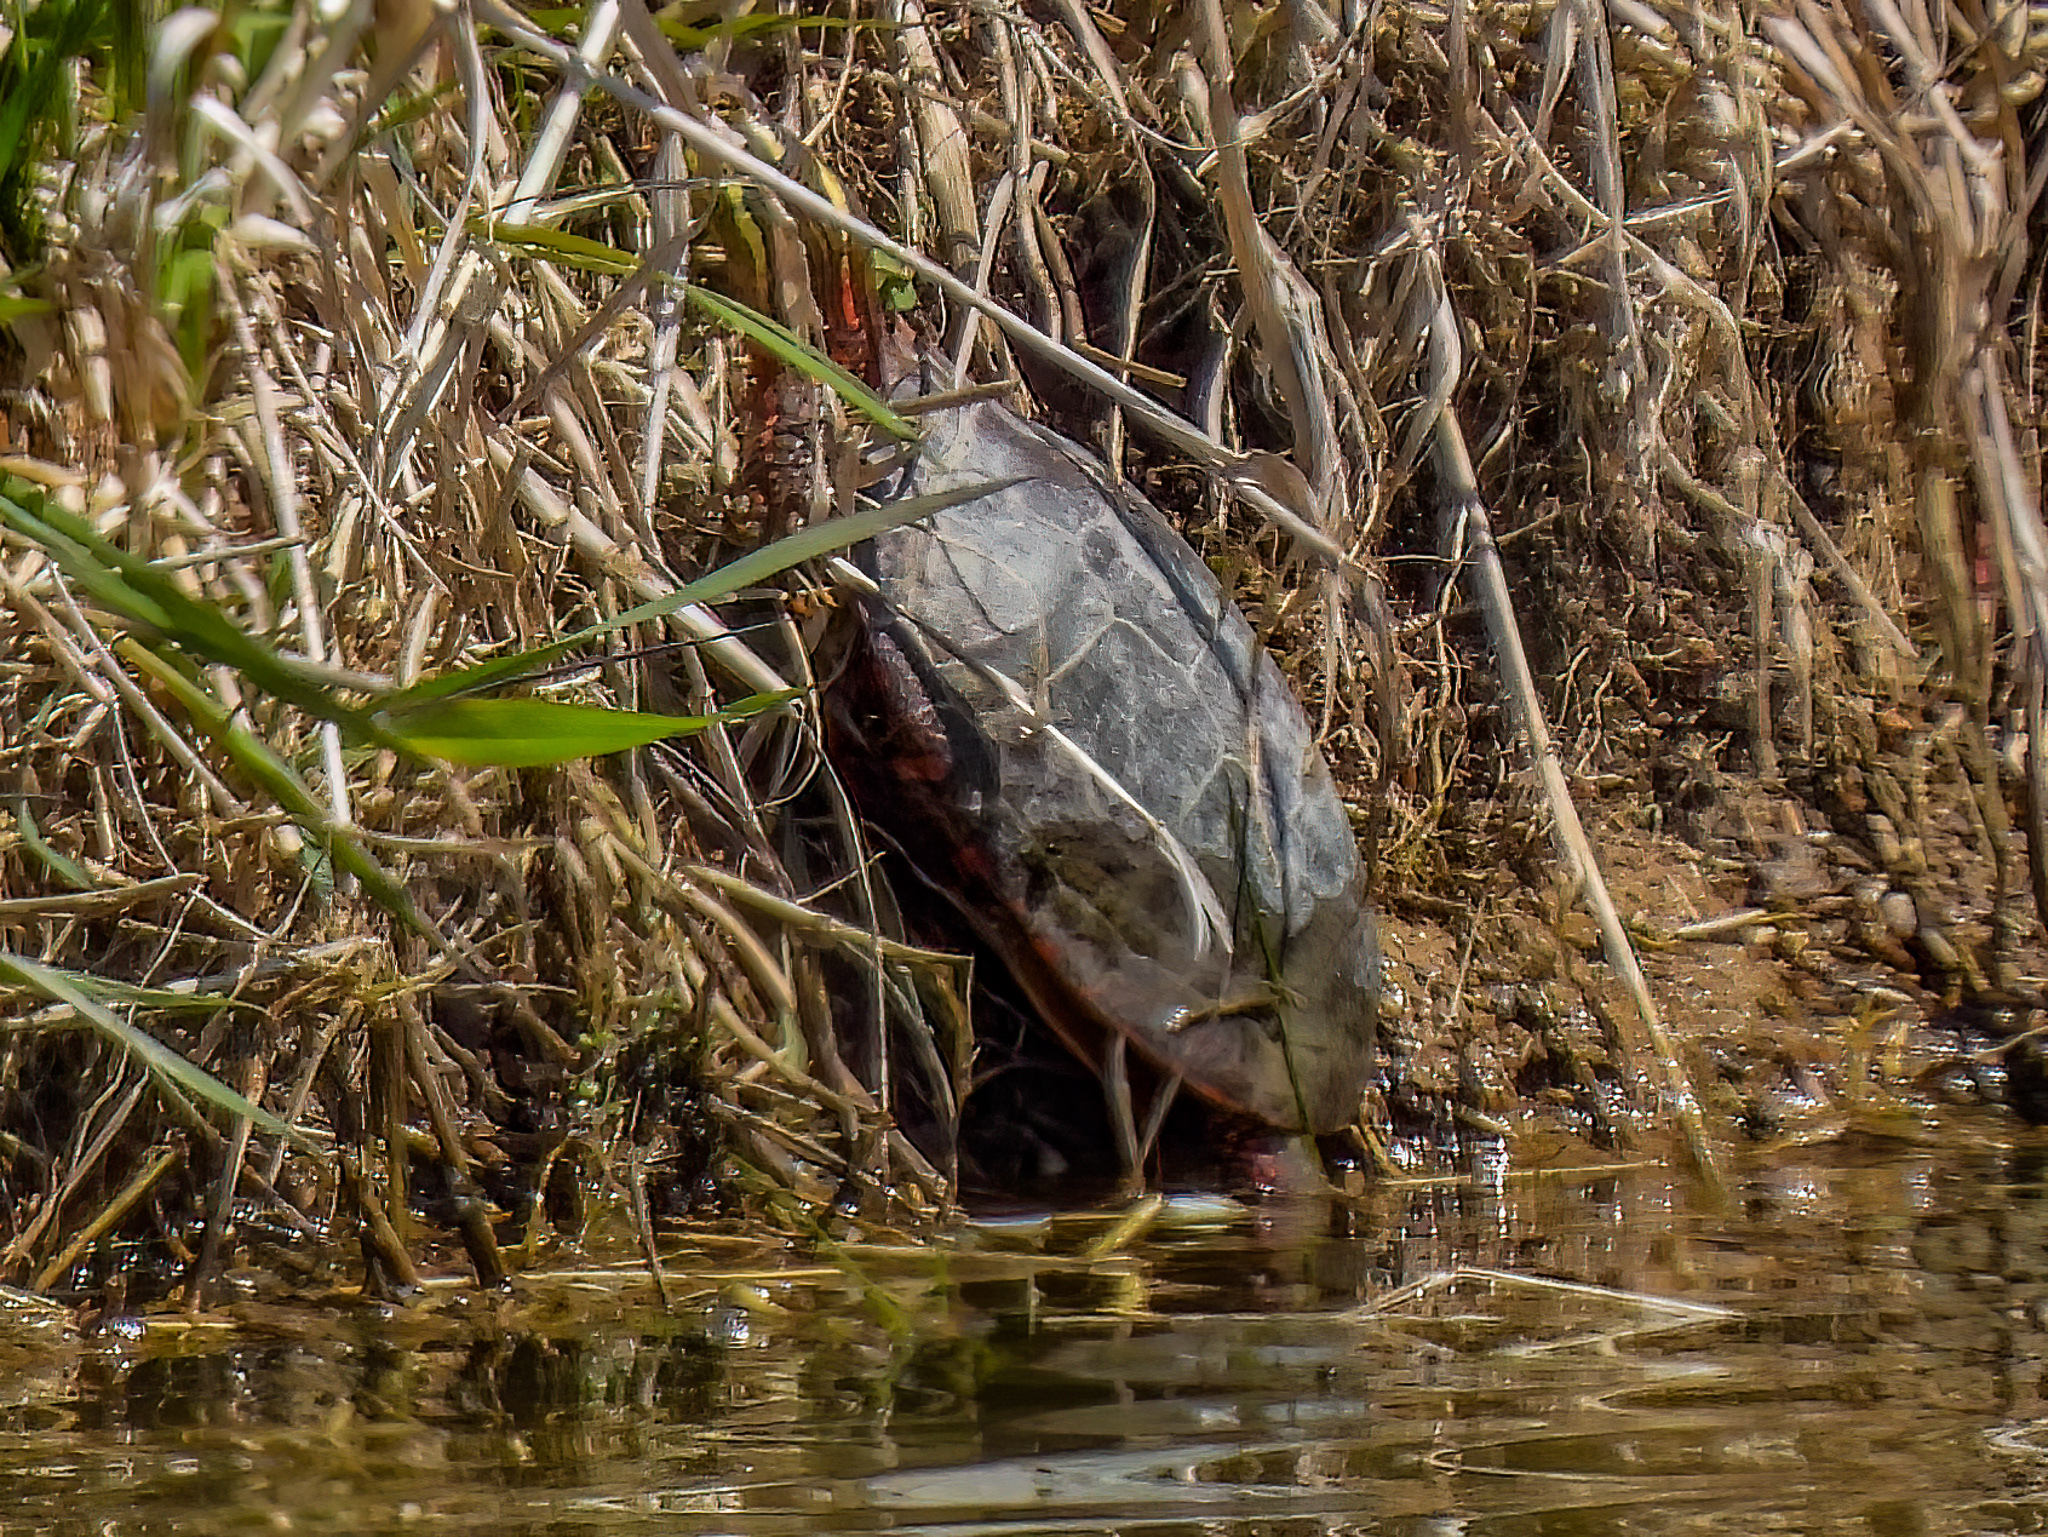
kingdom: Animalia
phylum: Chordata
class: Testudines
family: Emydidae
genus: Chrysemys
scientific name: Chrysemys picta
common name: Painted turtle
